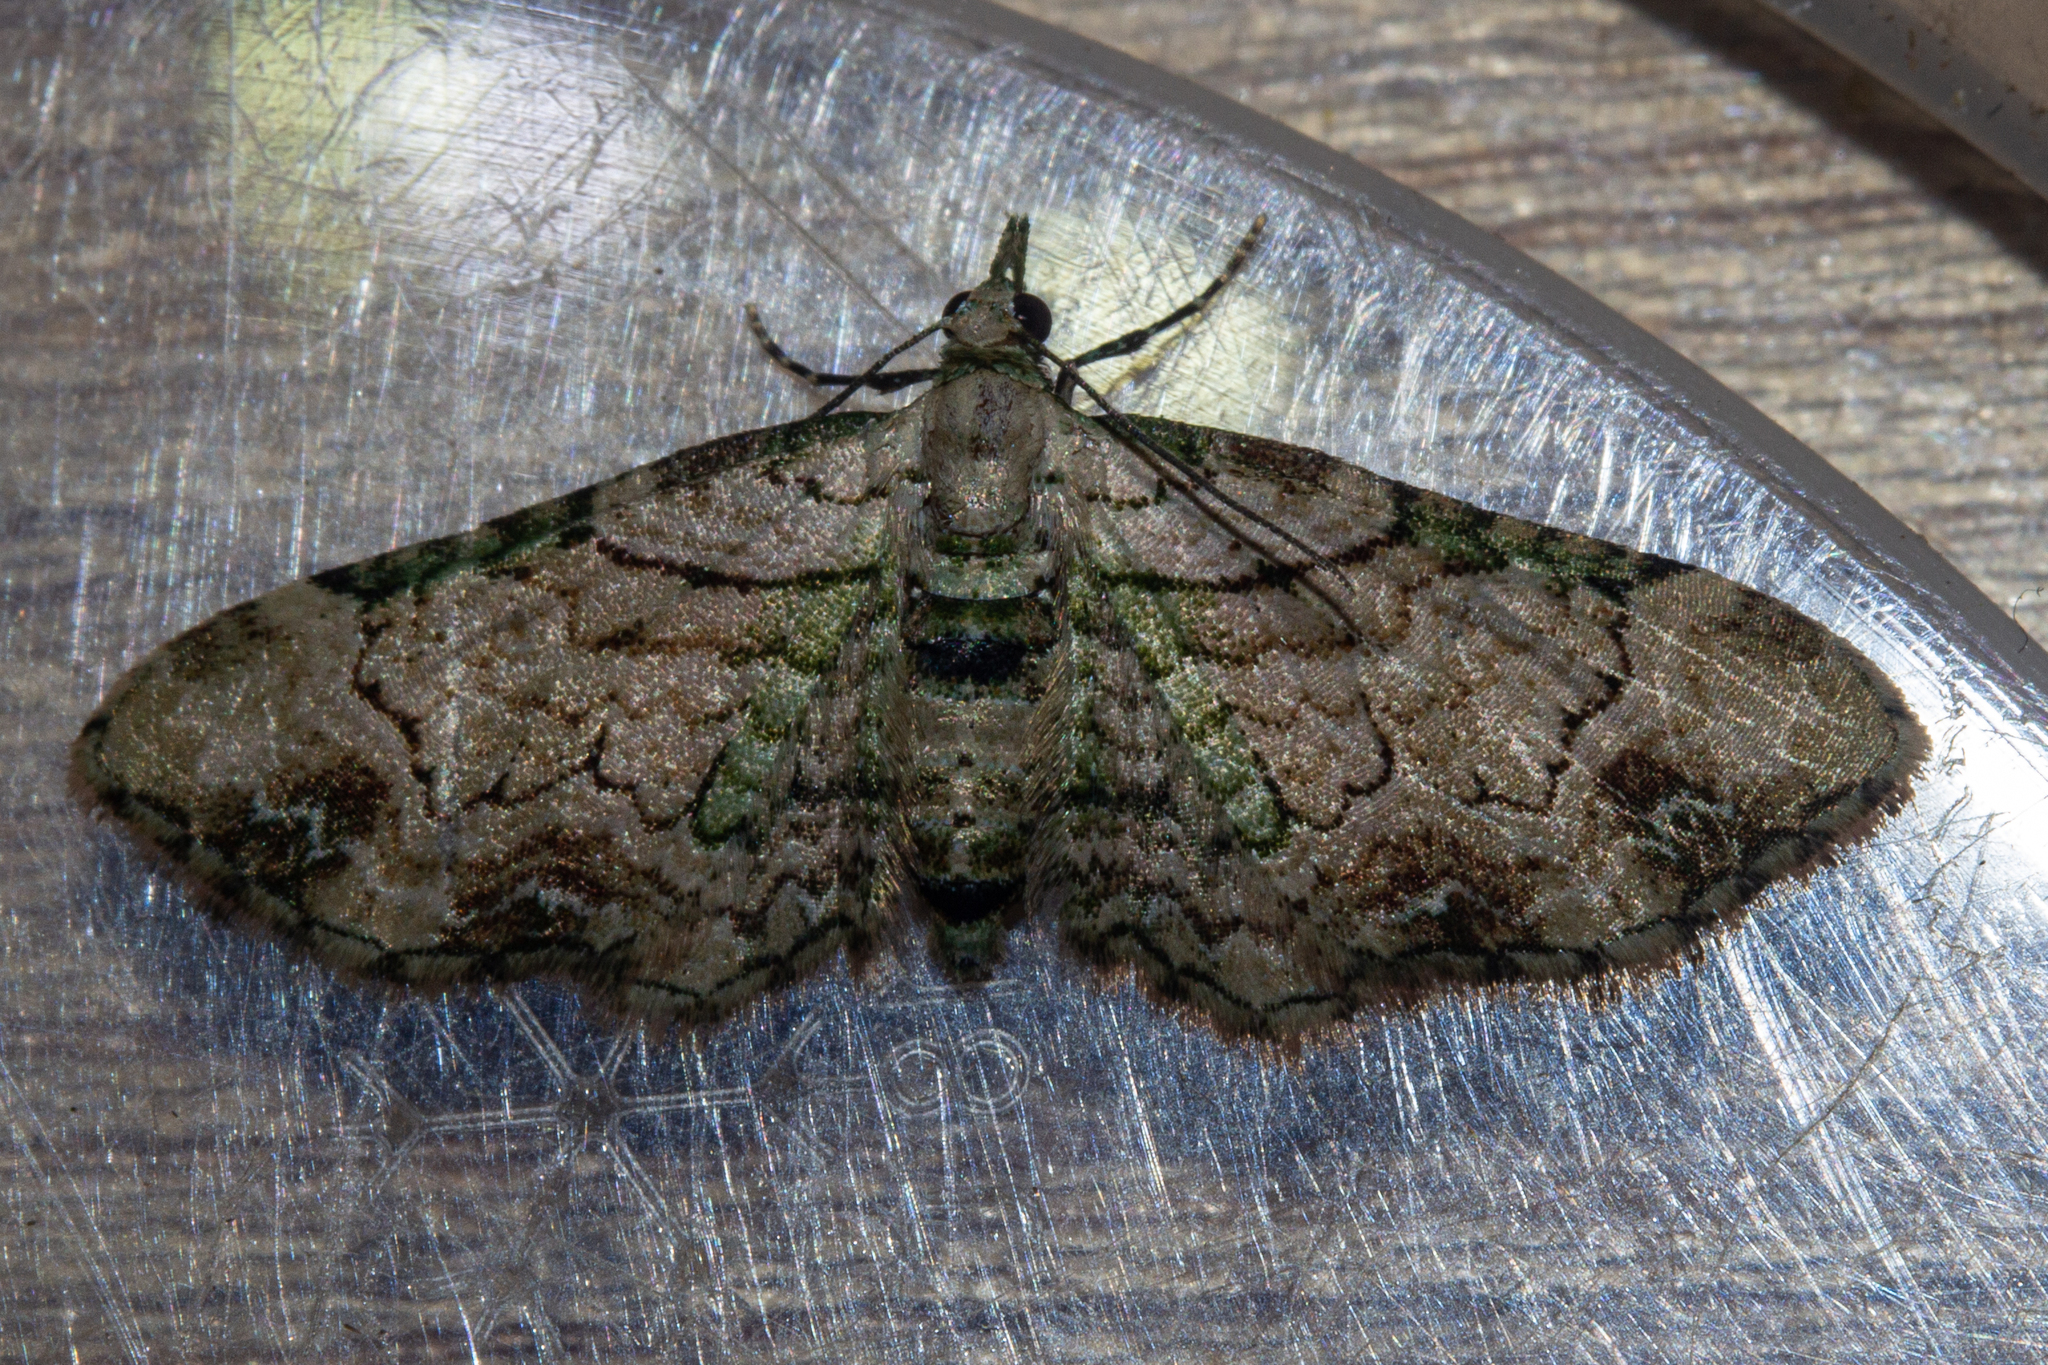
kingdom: Animalia
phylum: Arthropoda
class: Insecta
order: Lepidoptera
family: Geometridae
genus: Chloroclystis
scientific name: Chloroclystis
